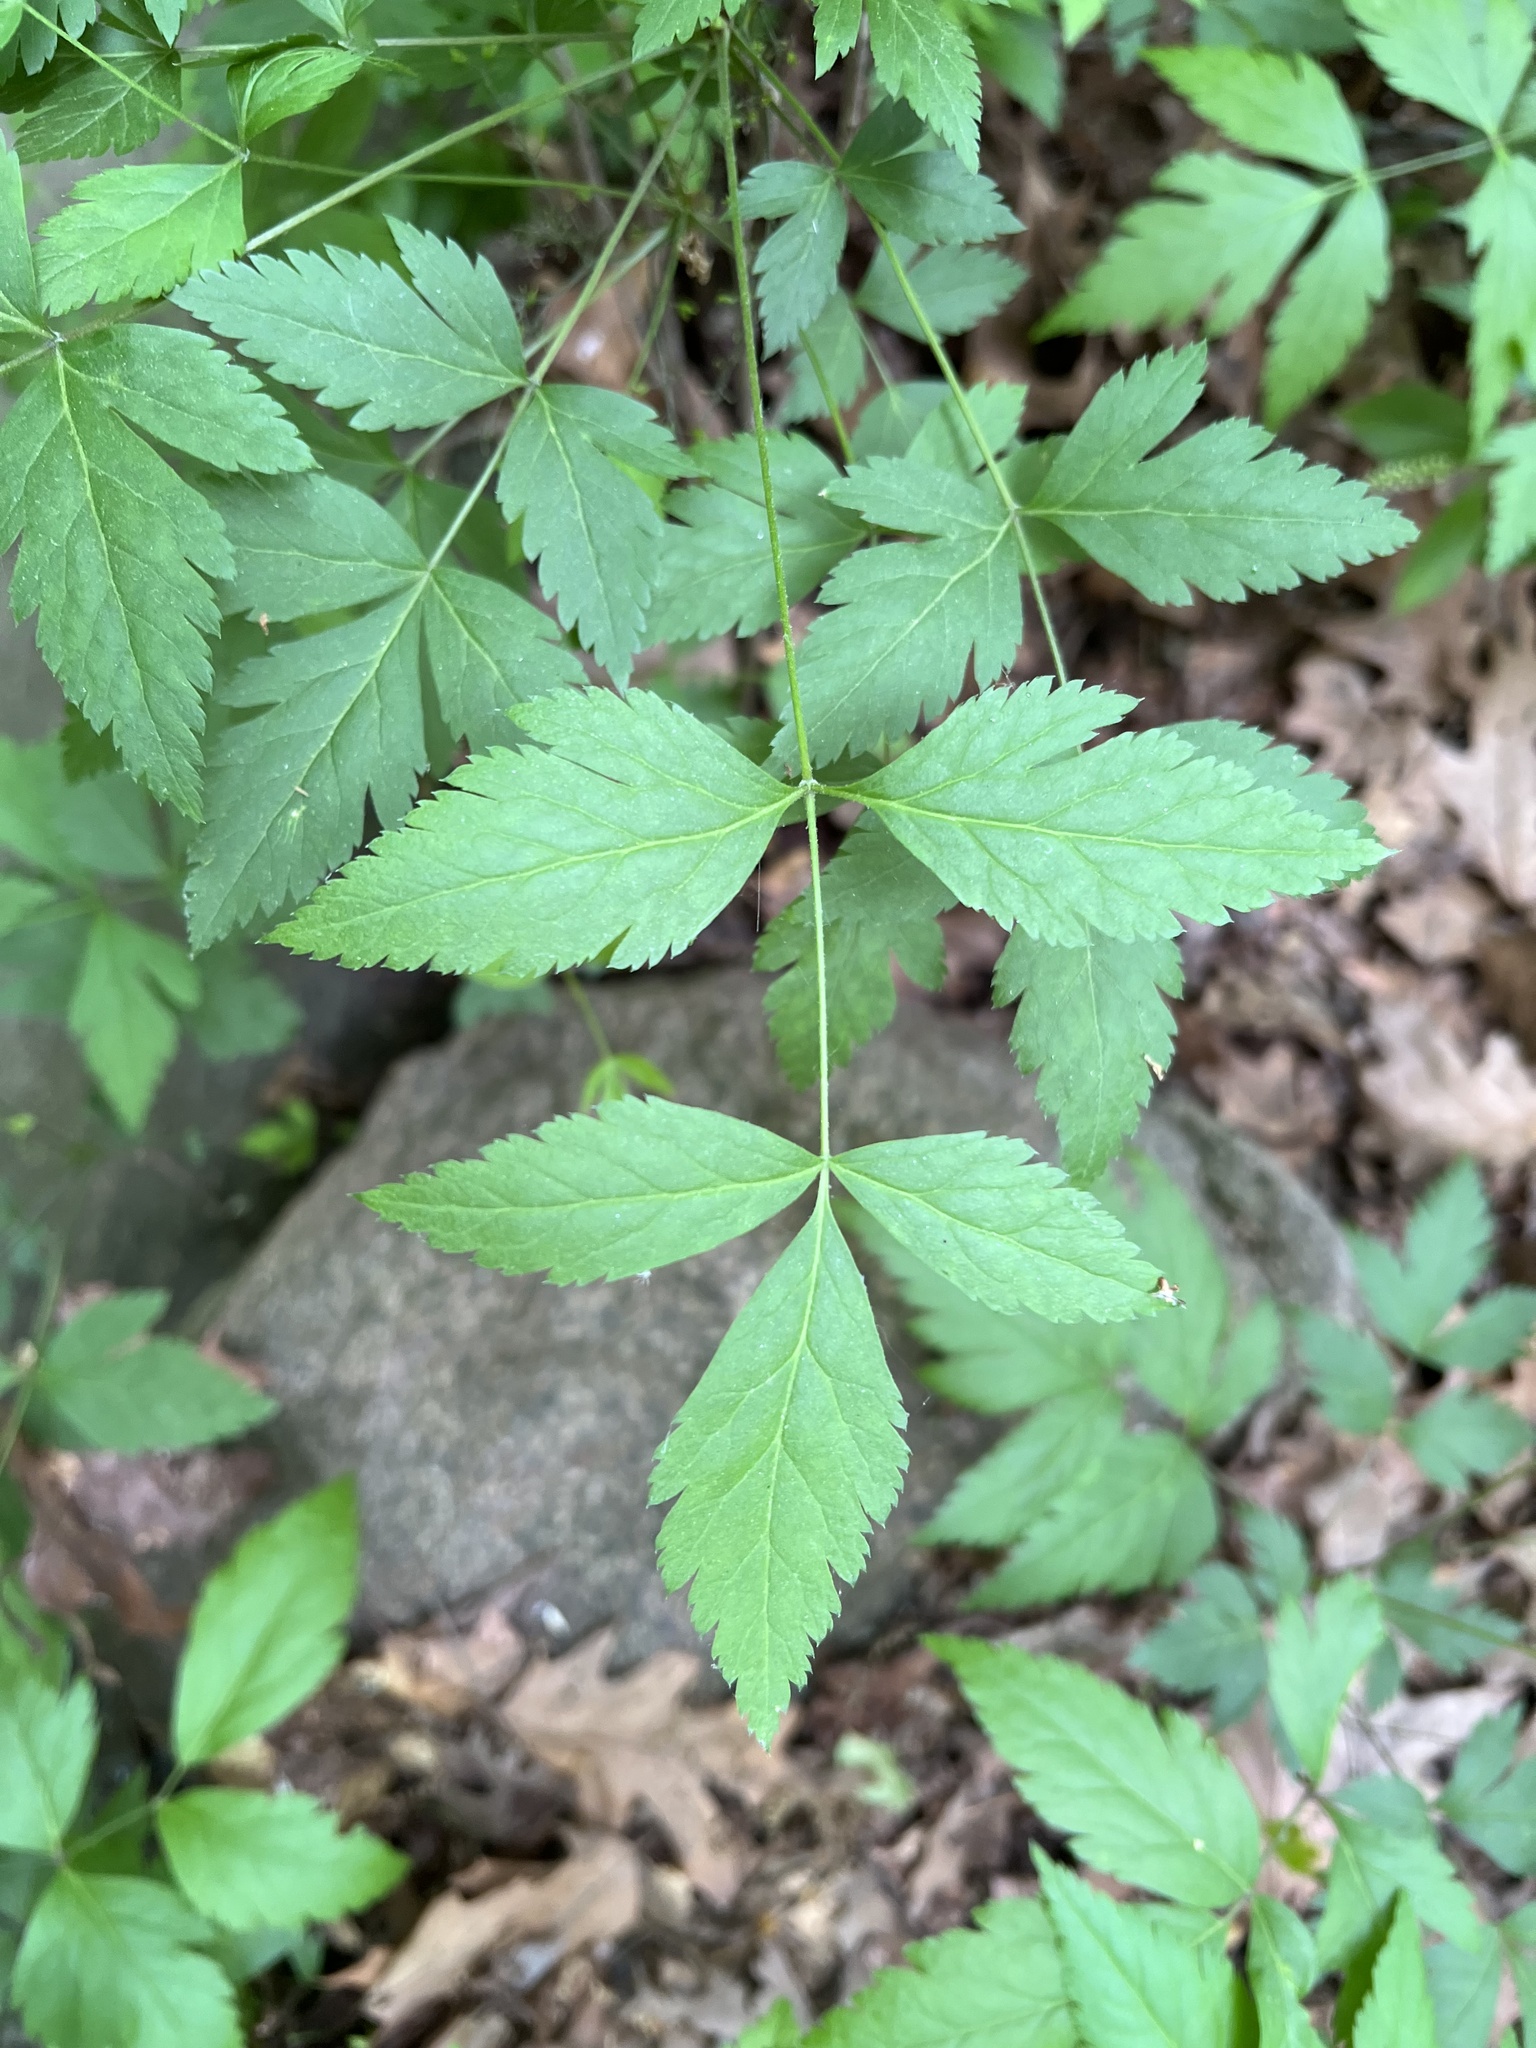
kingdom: Plantae
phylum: Tracheophyta
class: Magnoliopsida
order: Ranunculales
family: Ranunculaceae
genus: Xanthorhiza
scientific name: Xanthorhiza simplicissima
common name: Yellowroot
